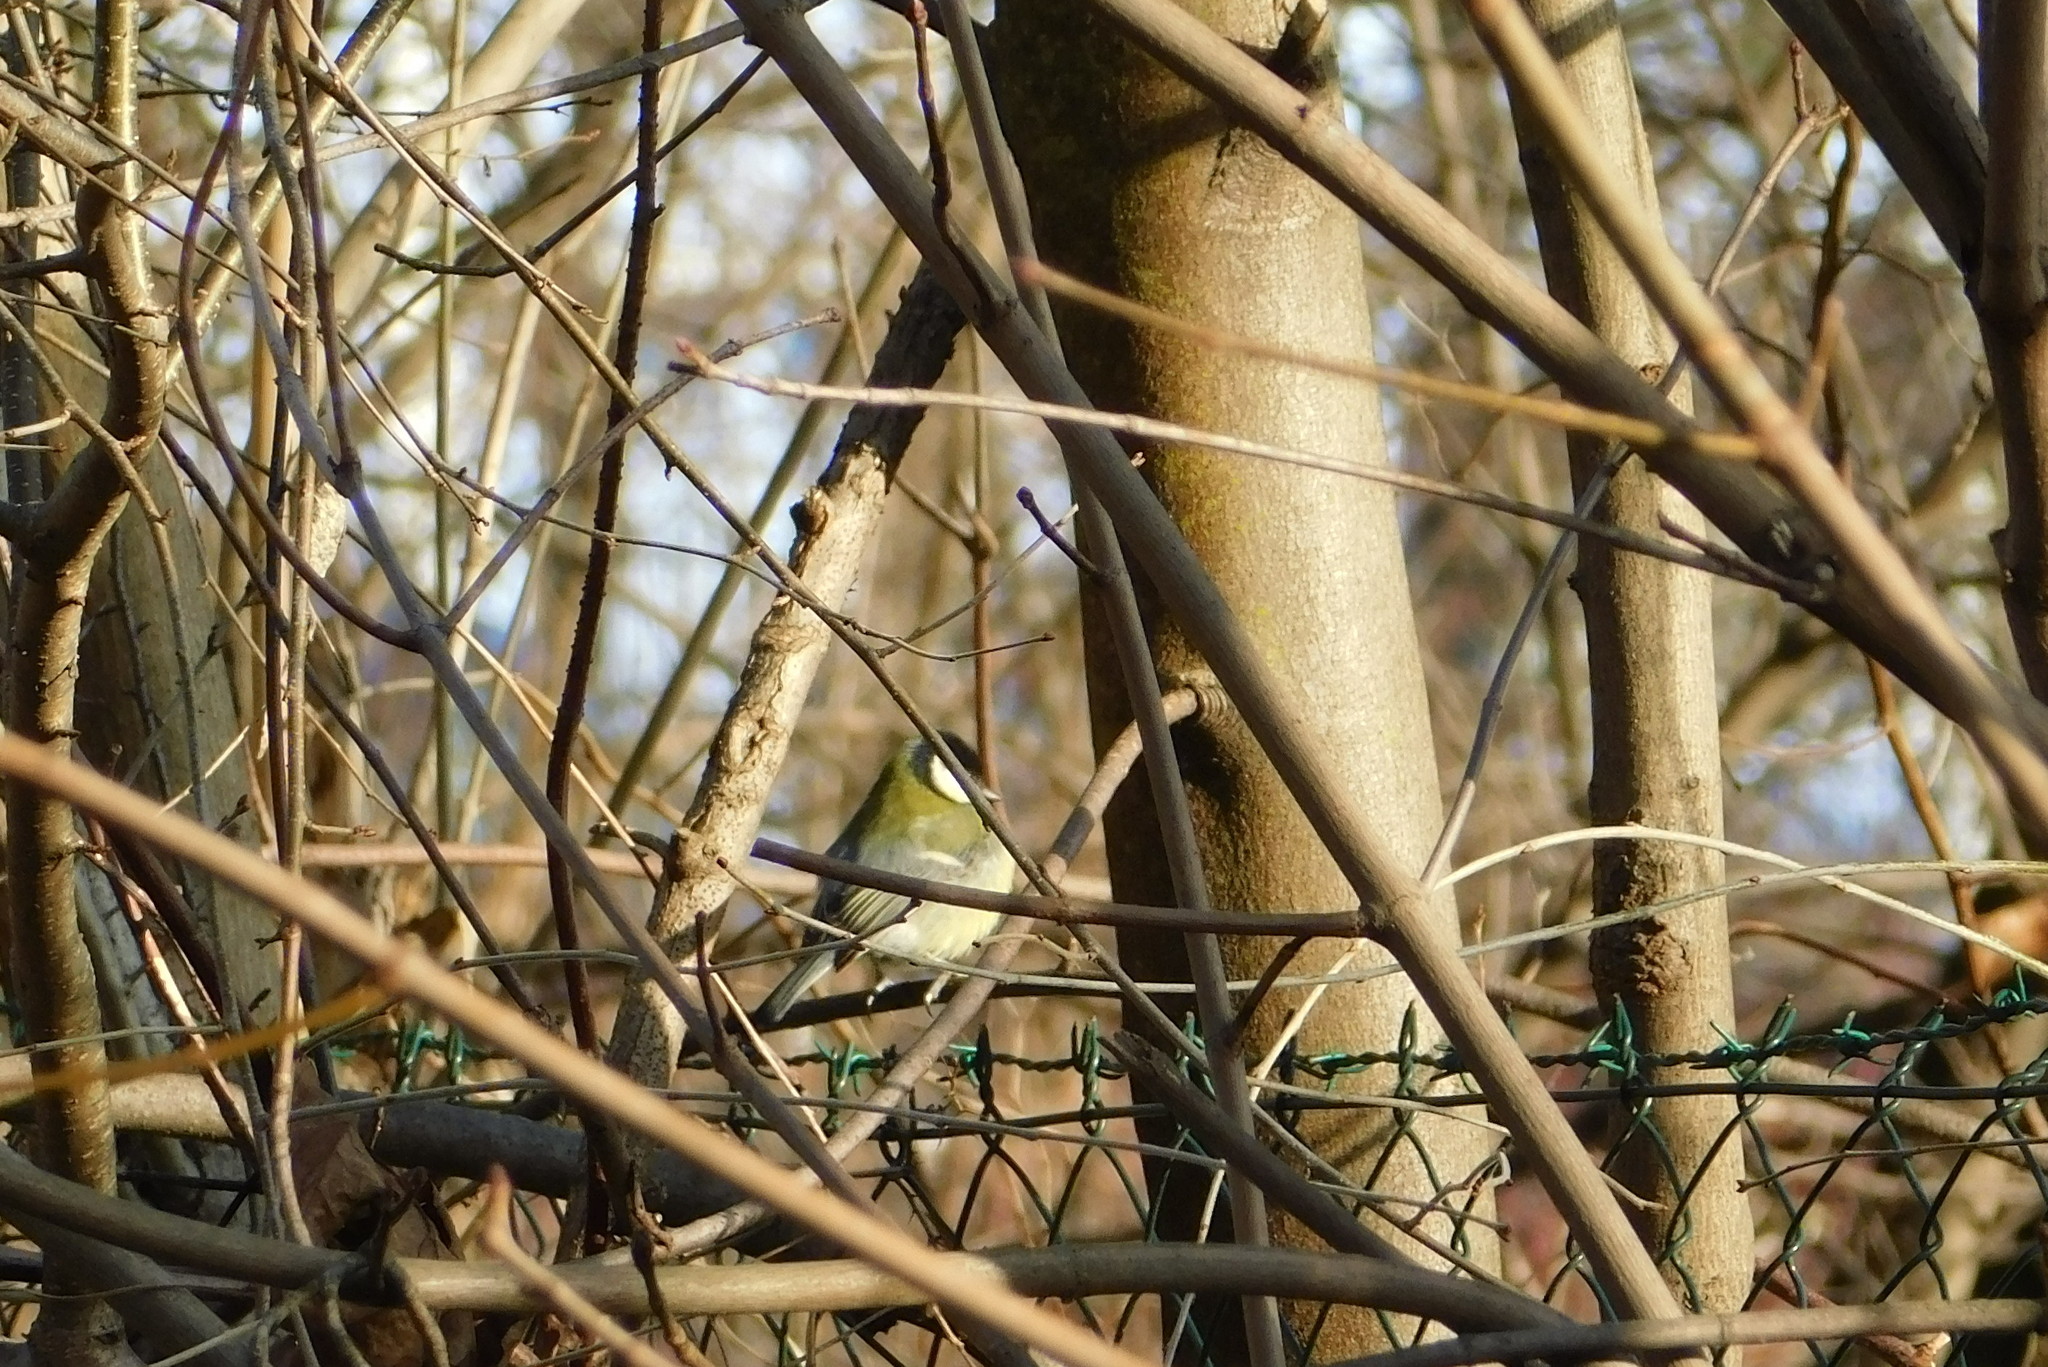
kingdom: Animalia
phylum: Chordata
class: Aves
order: Passeriformes
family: Paridae
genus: Parus
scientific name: Parus major
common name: Great tit
